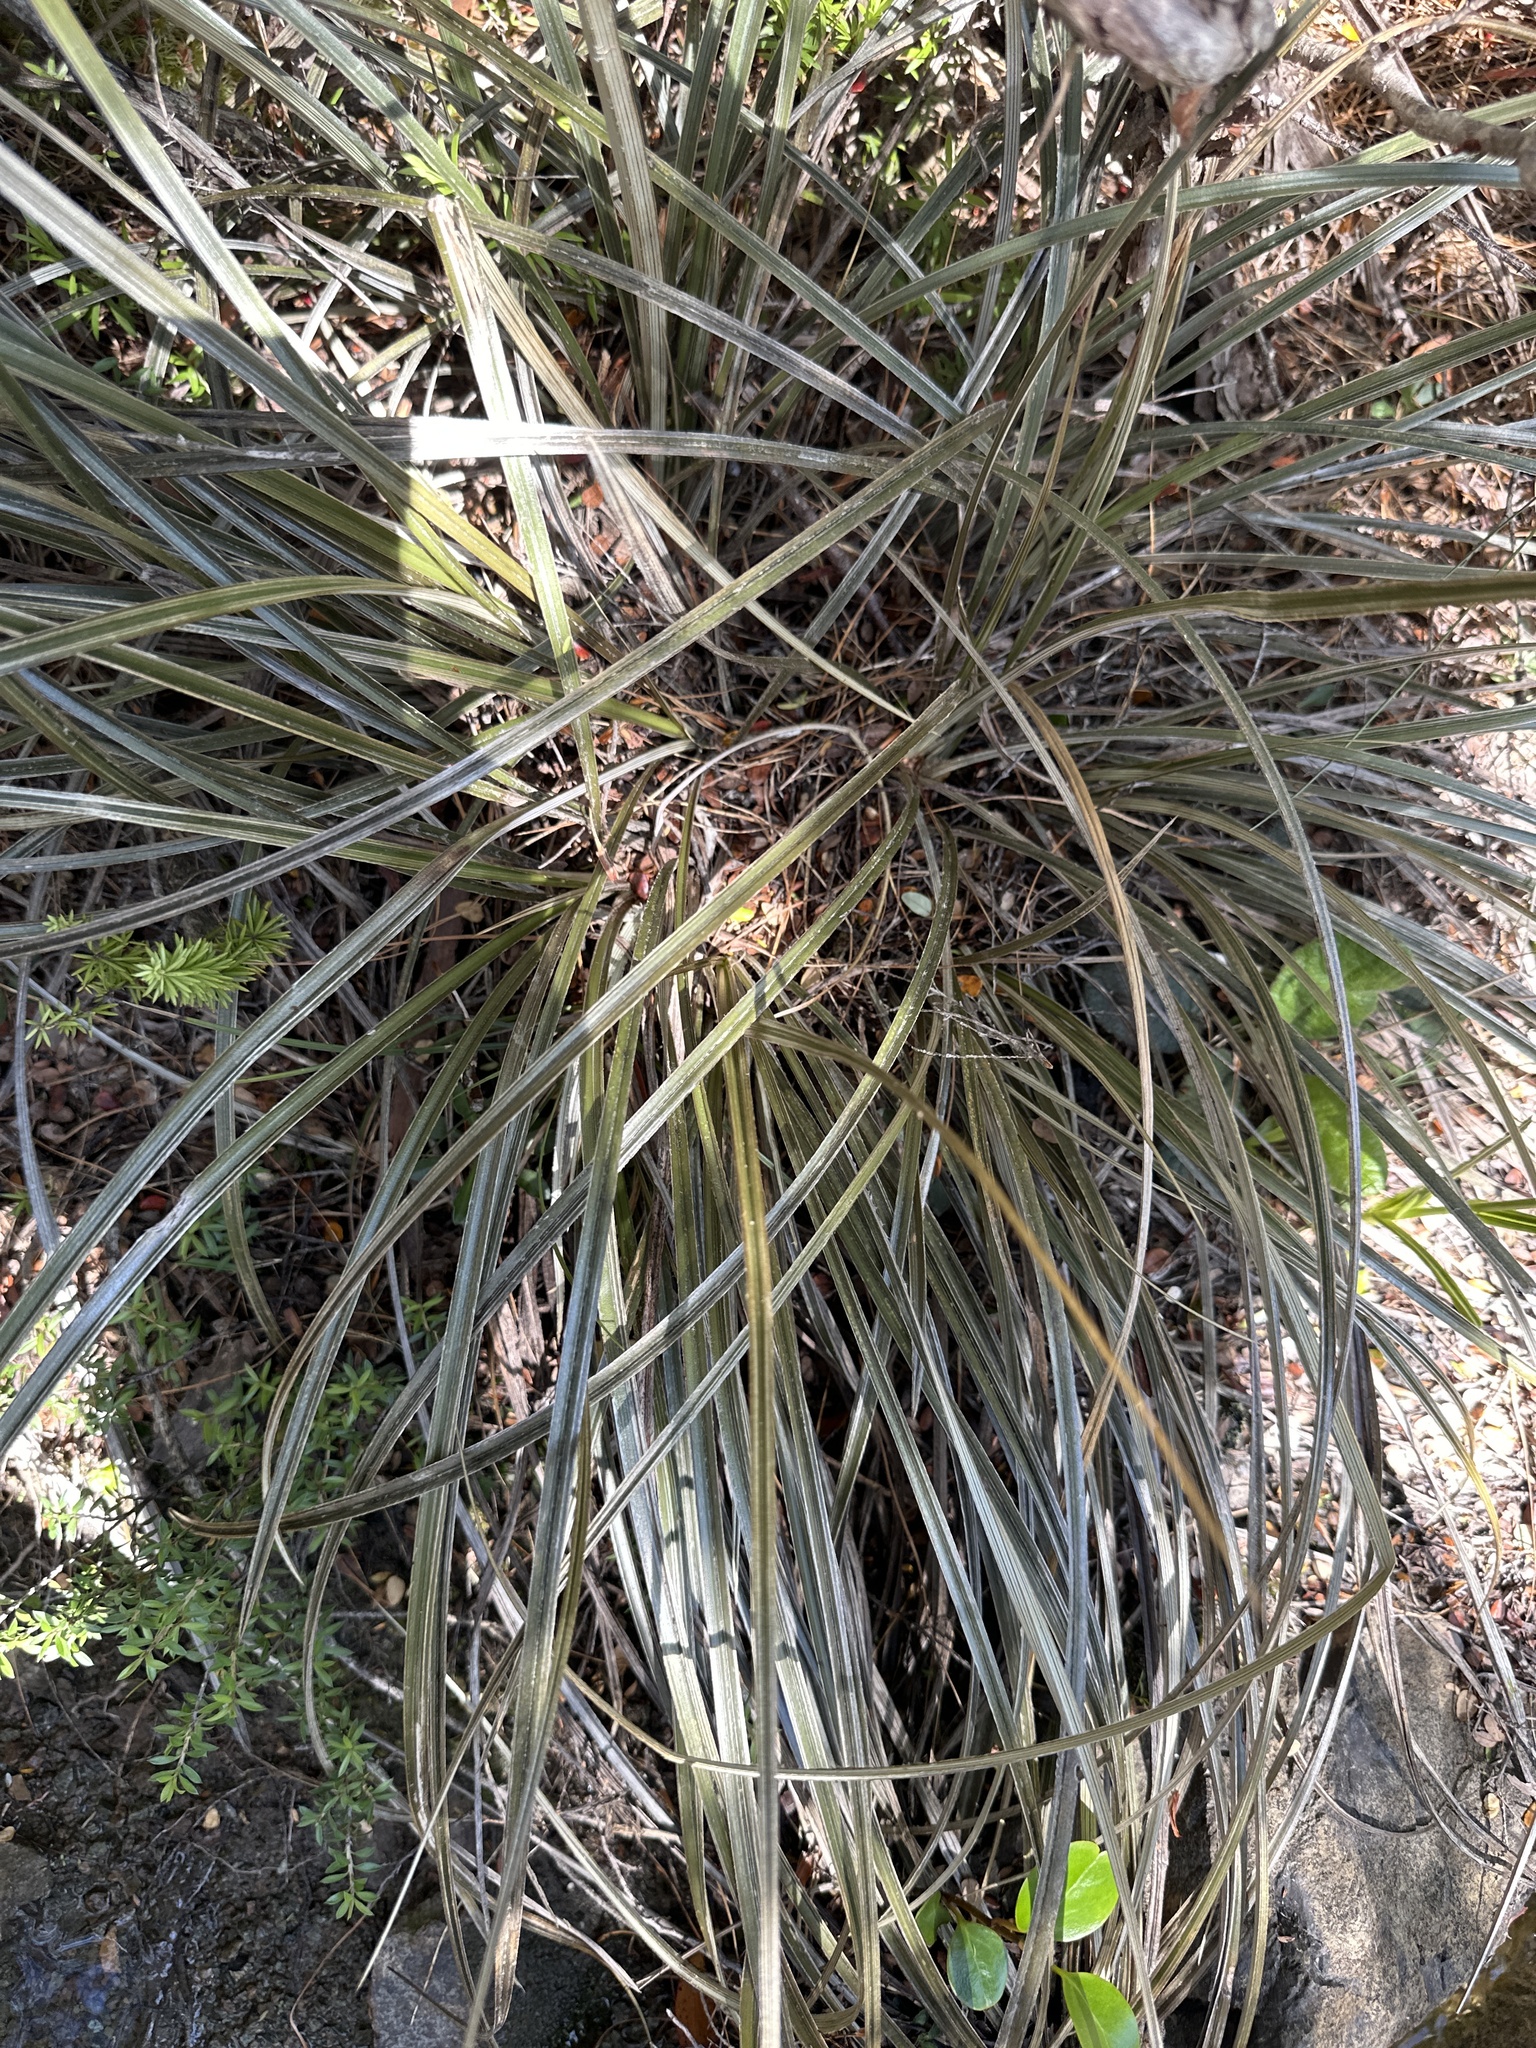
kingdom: Plantae
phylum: Tracheophyta
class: Liliopsida
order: Asparagales
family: Asteliaceae
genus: Astelia
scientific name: Astelia graminea
